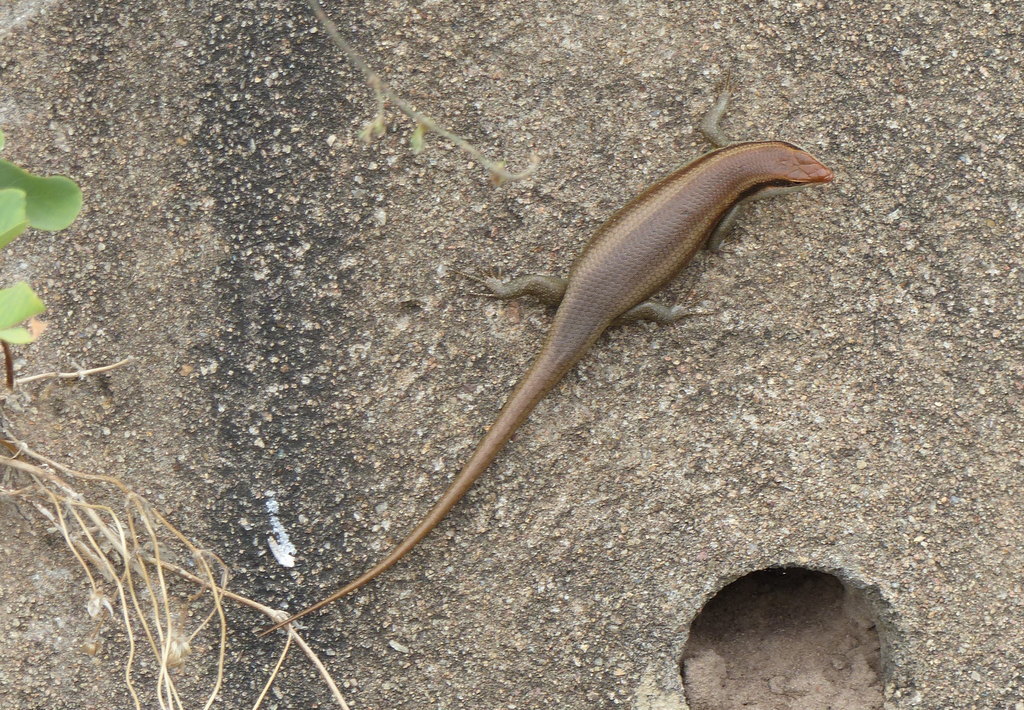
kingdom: Animalia
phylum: Chordata
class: Squamata
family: Scincidae
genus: Trachylepis
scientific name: Trachylepis wahlbergii
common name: Wahlberg’s striped skink
